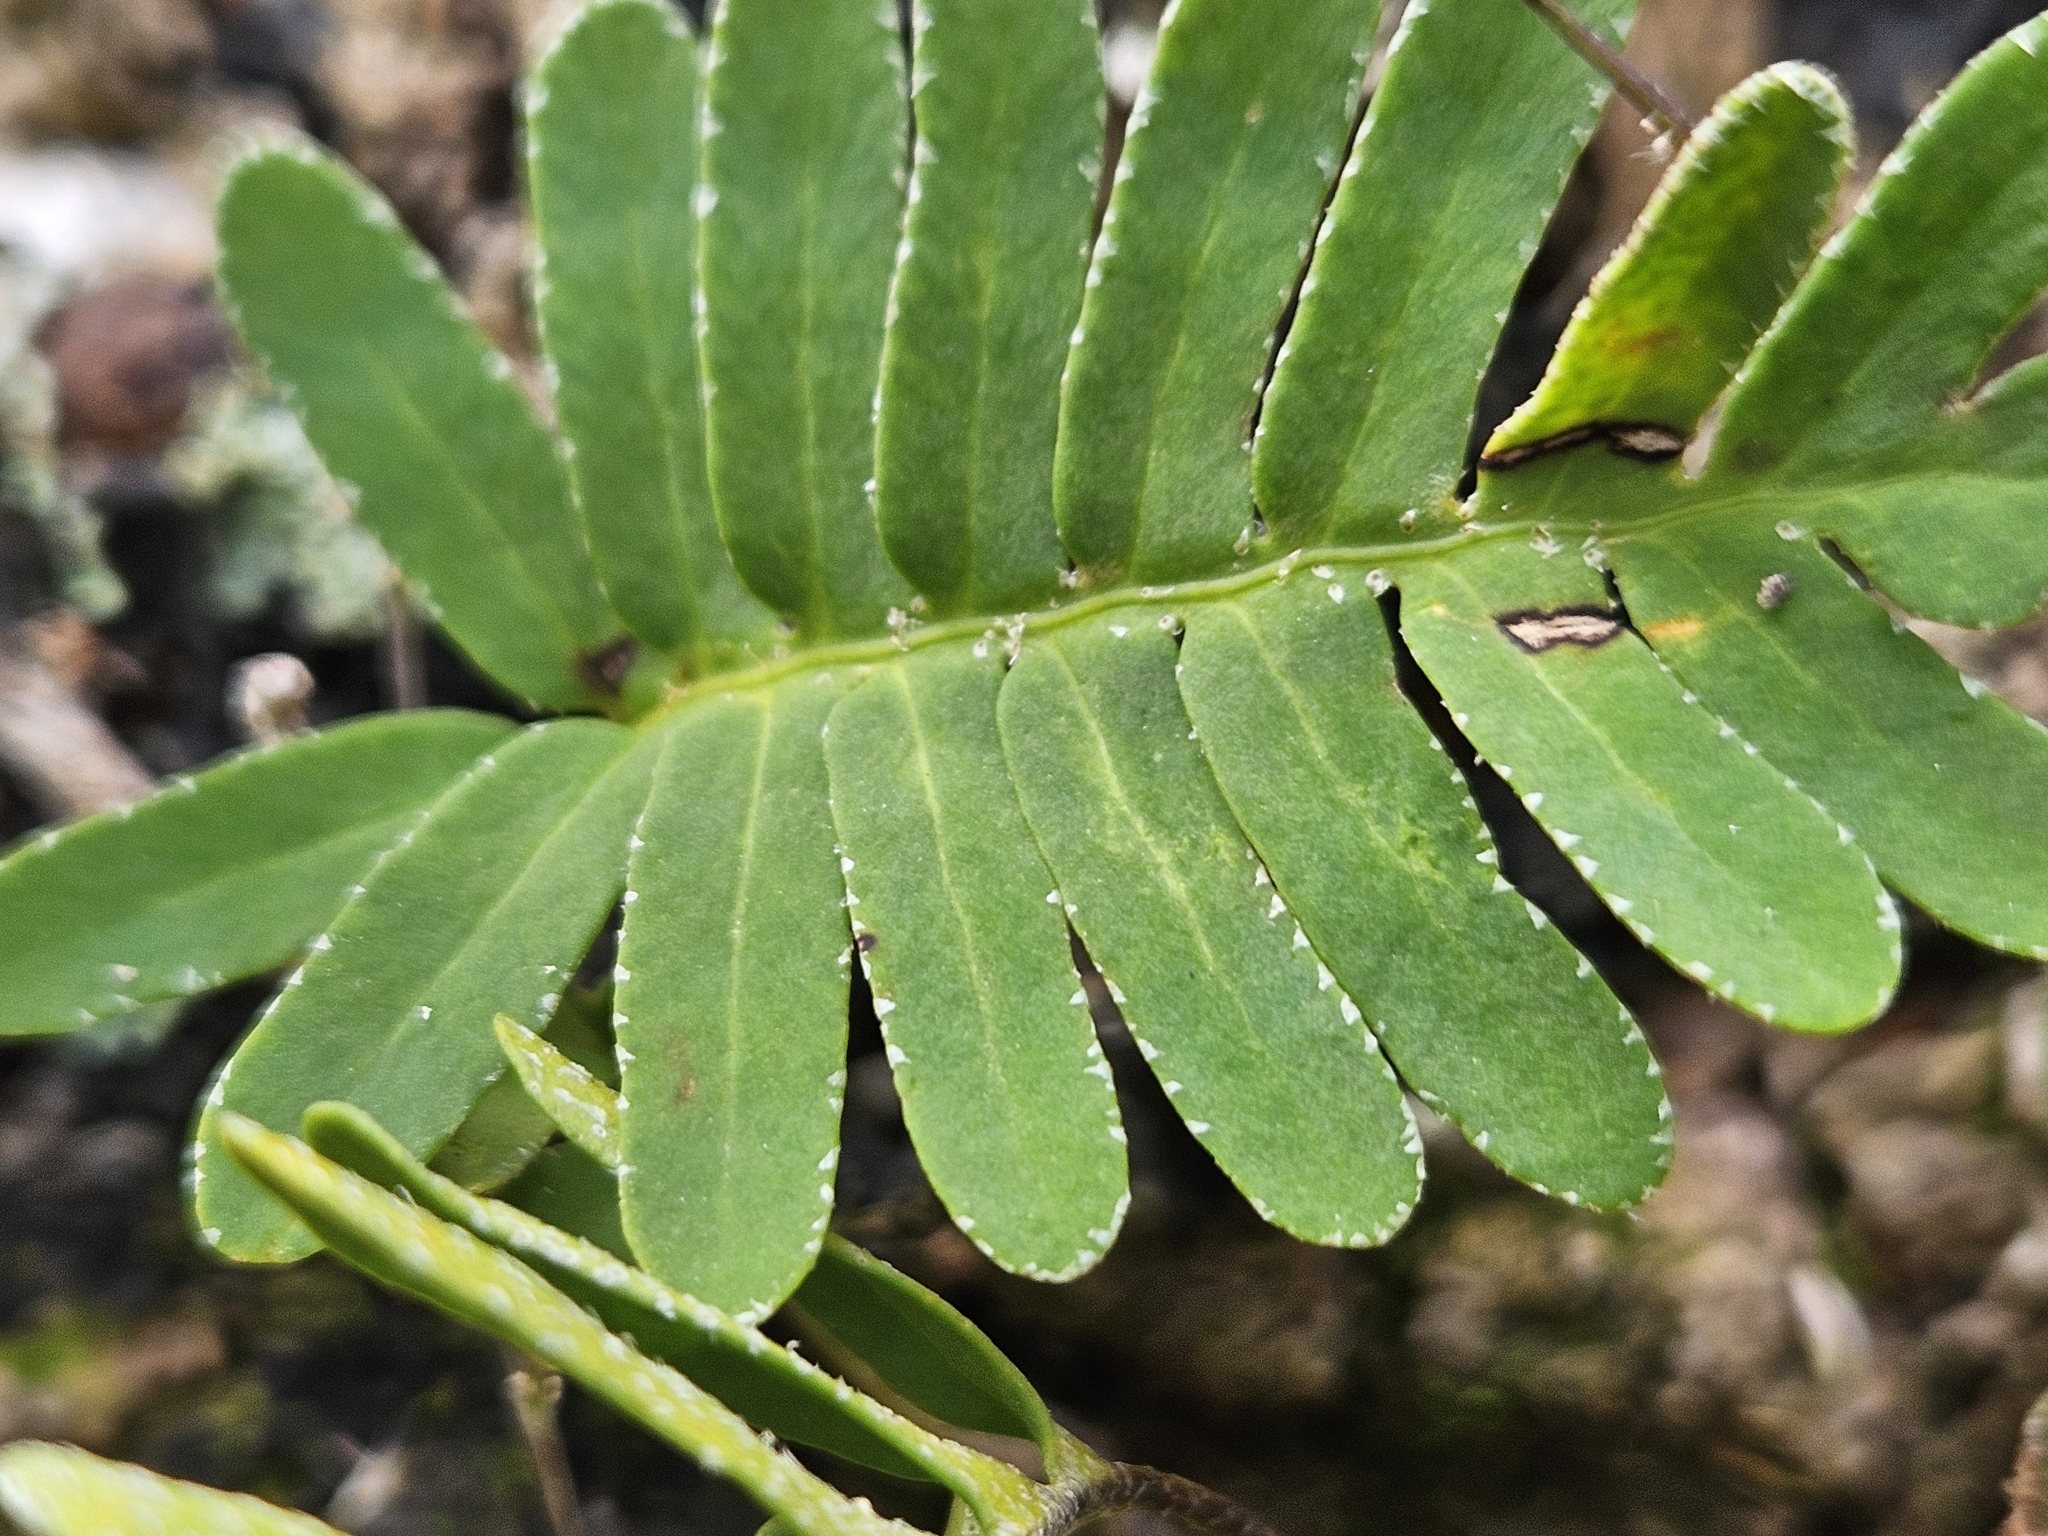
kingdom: Plantae
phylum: Tracheophyta
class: Polypodiopsida
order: Polypodiales
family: Polypodiaceae
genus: Pleopeltis
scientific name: Pleopeltis michauxiana
